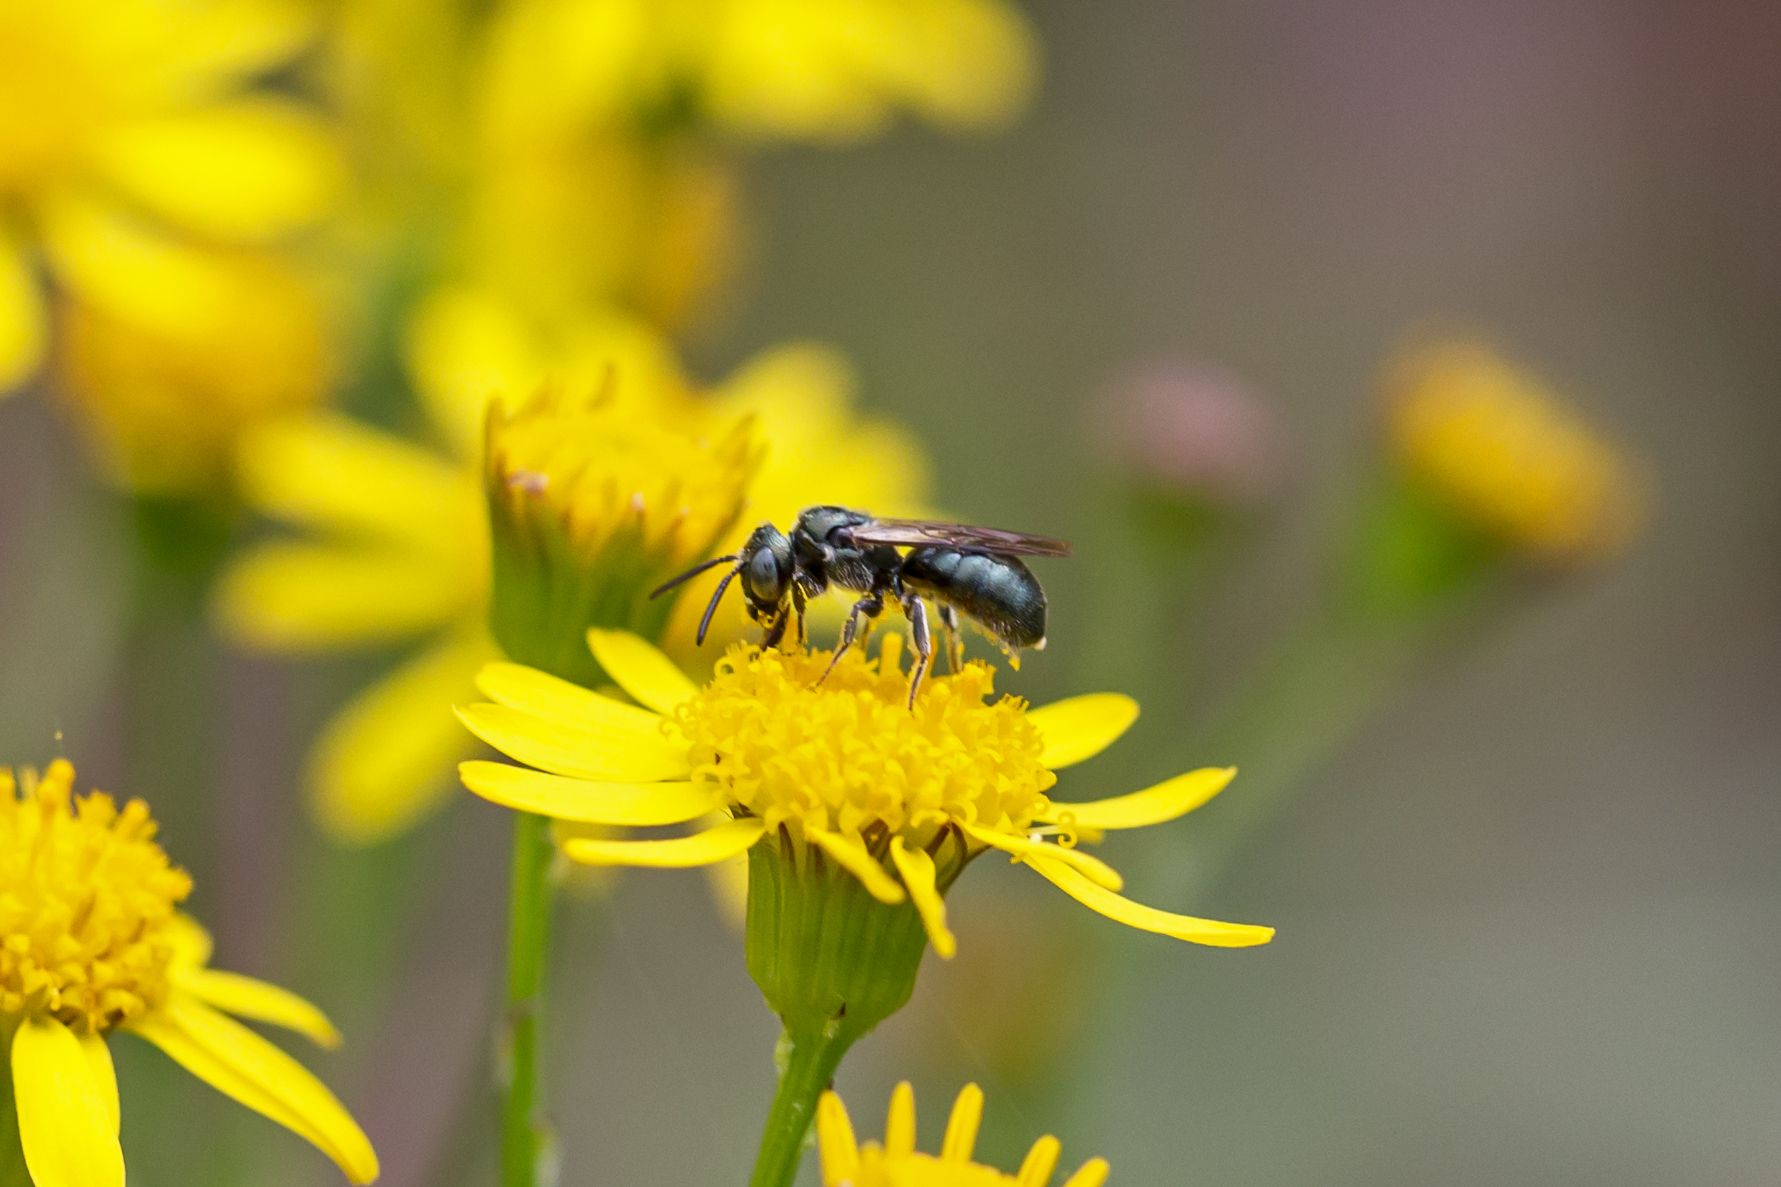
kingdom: Animalia
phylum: Arthropoda
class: Insecta
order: Hymenoptera
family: Apidae
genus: Ceratina
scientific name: Ceratina calcarata
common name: Spurred carpenter bee
